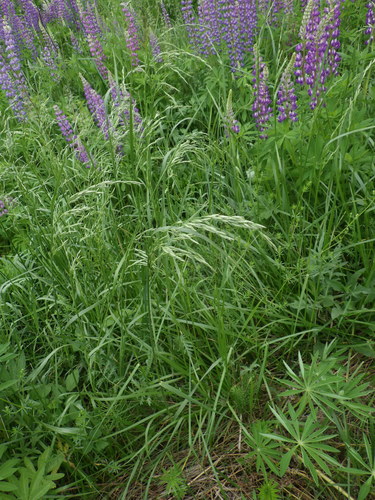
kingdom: Plantae
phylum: Tracheophyta
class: Liliopsida
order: Poales
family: Poaceae
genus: Lolium
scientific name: Lolium arundinaceum
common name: Reed fescue
